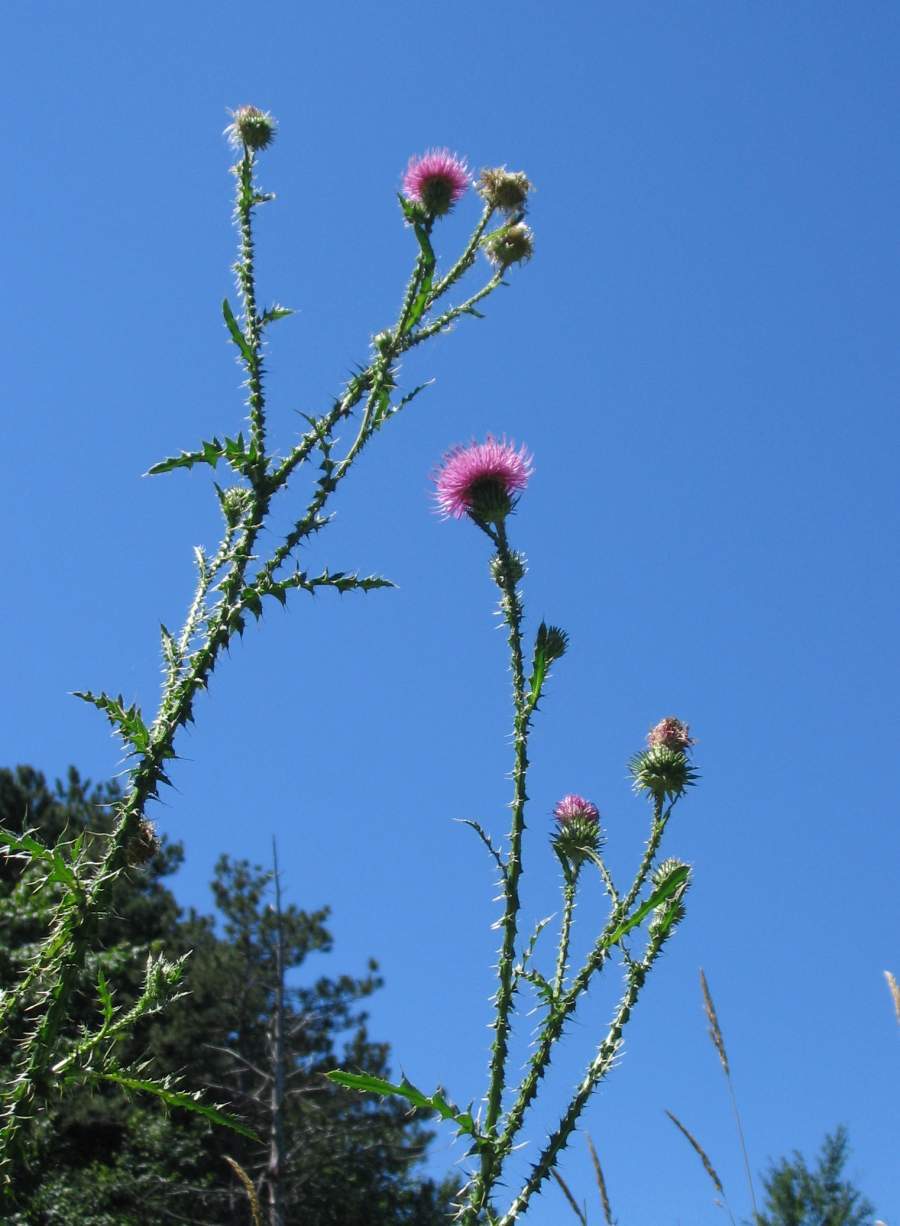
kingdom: Plantae
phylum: Tracheophyta
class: Magnoliopsida
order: Asterales
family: Asteraceae
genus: Carduus
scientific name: Carduus acanthoides
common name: Plumeless thistle
